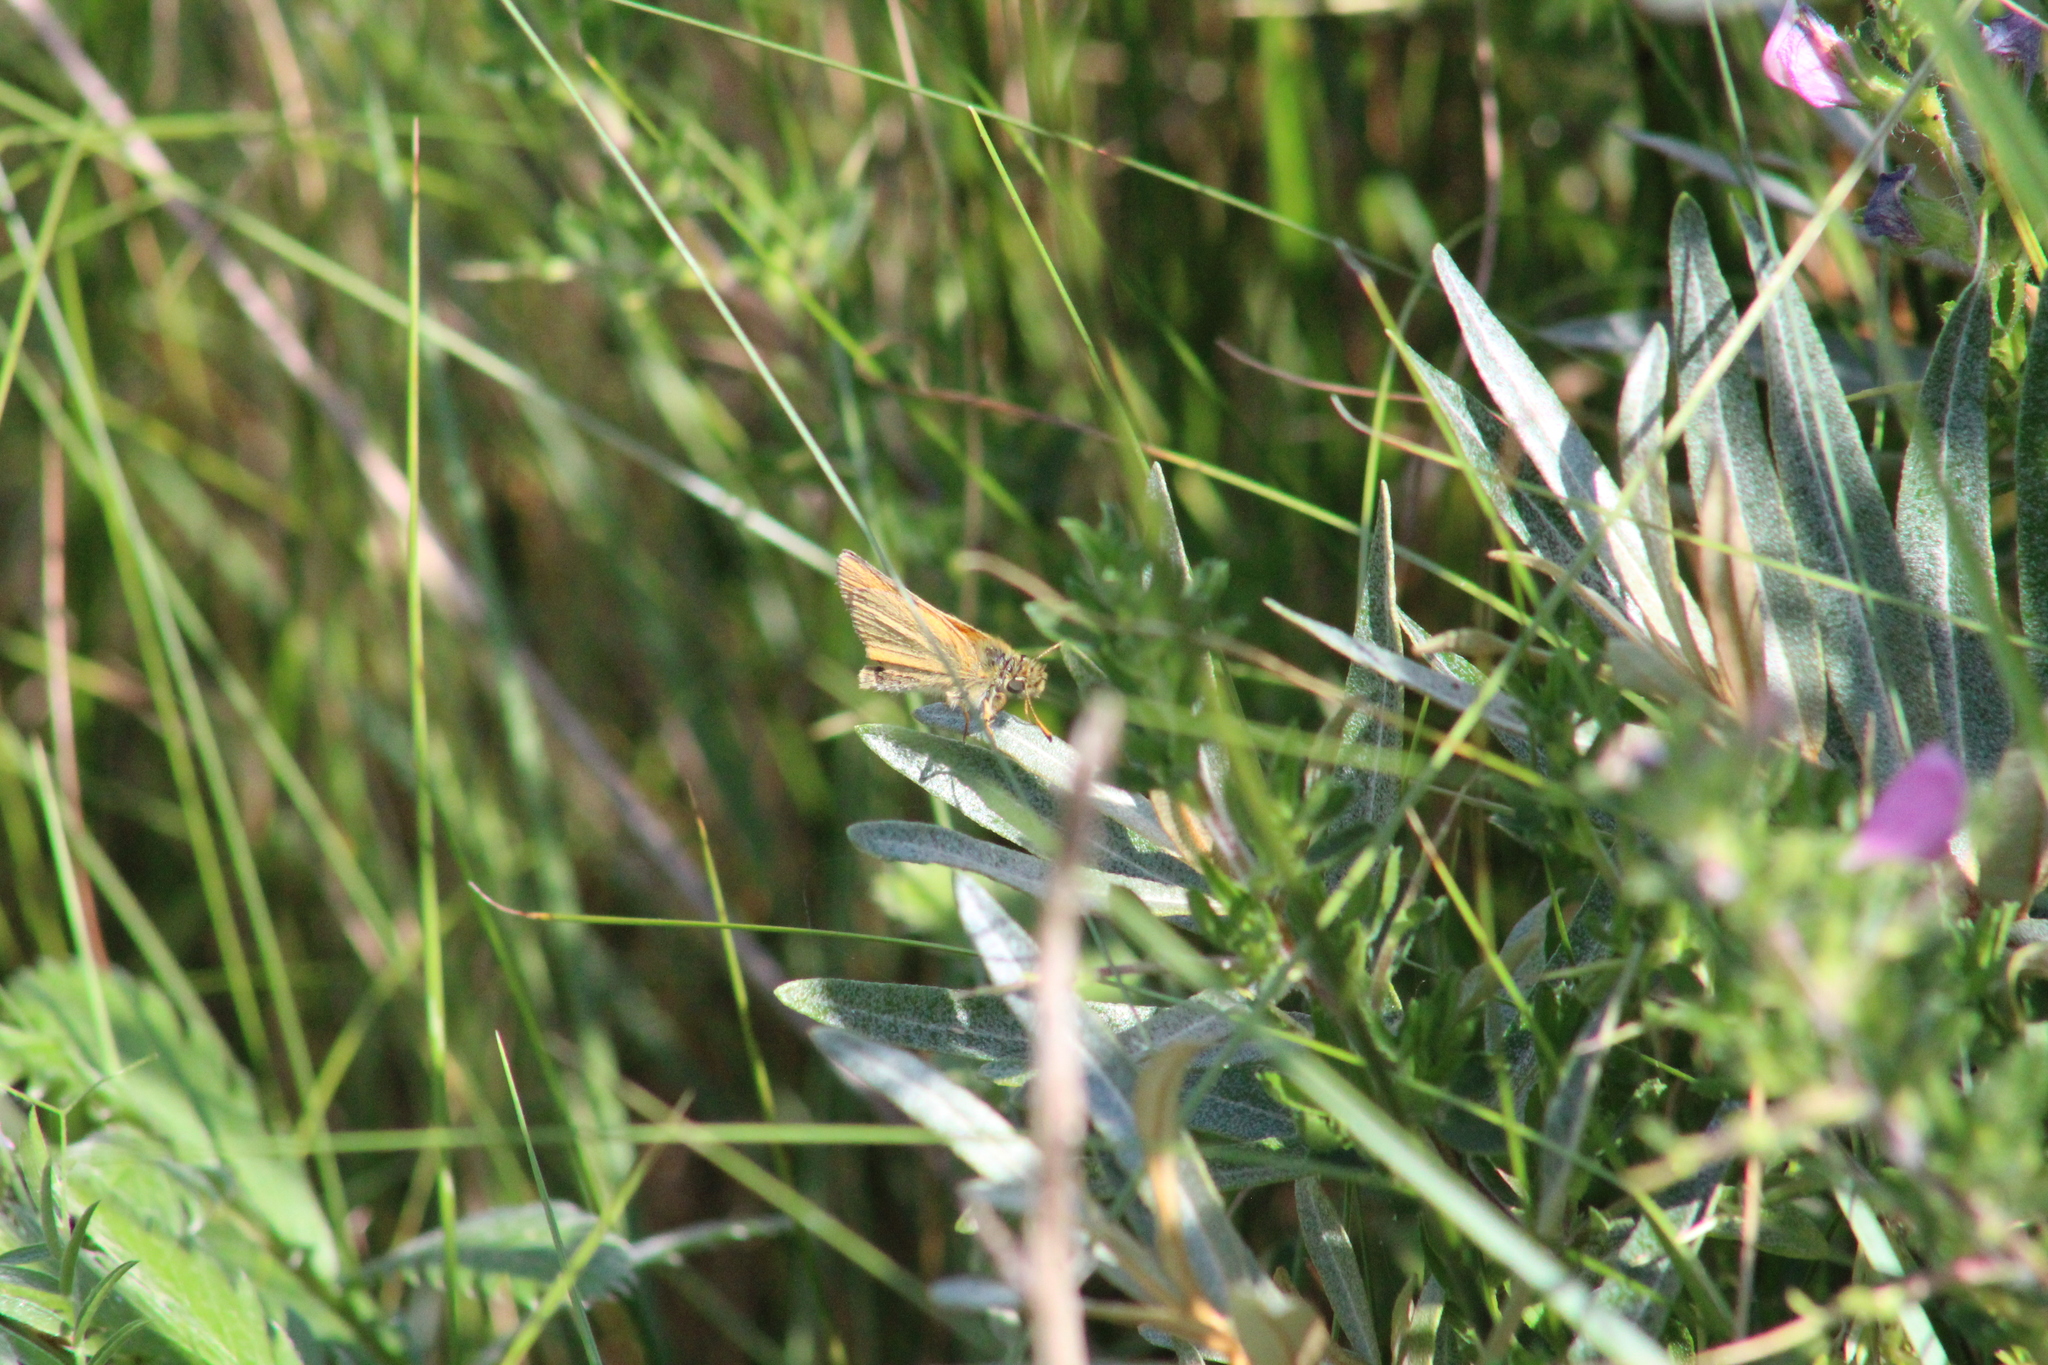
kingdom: Animalia
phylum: Arthropoda
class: Insecta
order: Lepidoptera
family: Hesperiidae
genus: Thymelicus
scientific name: Thymelicus lineola
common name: Essex skipper
